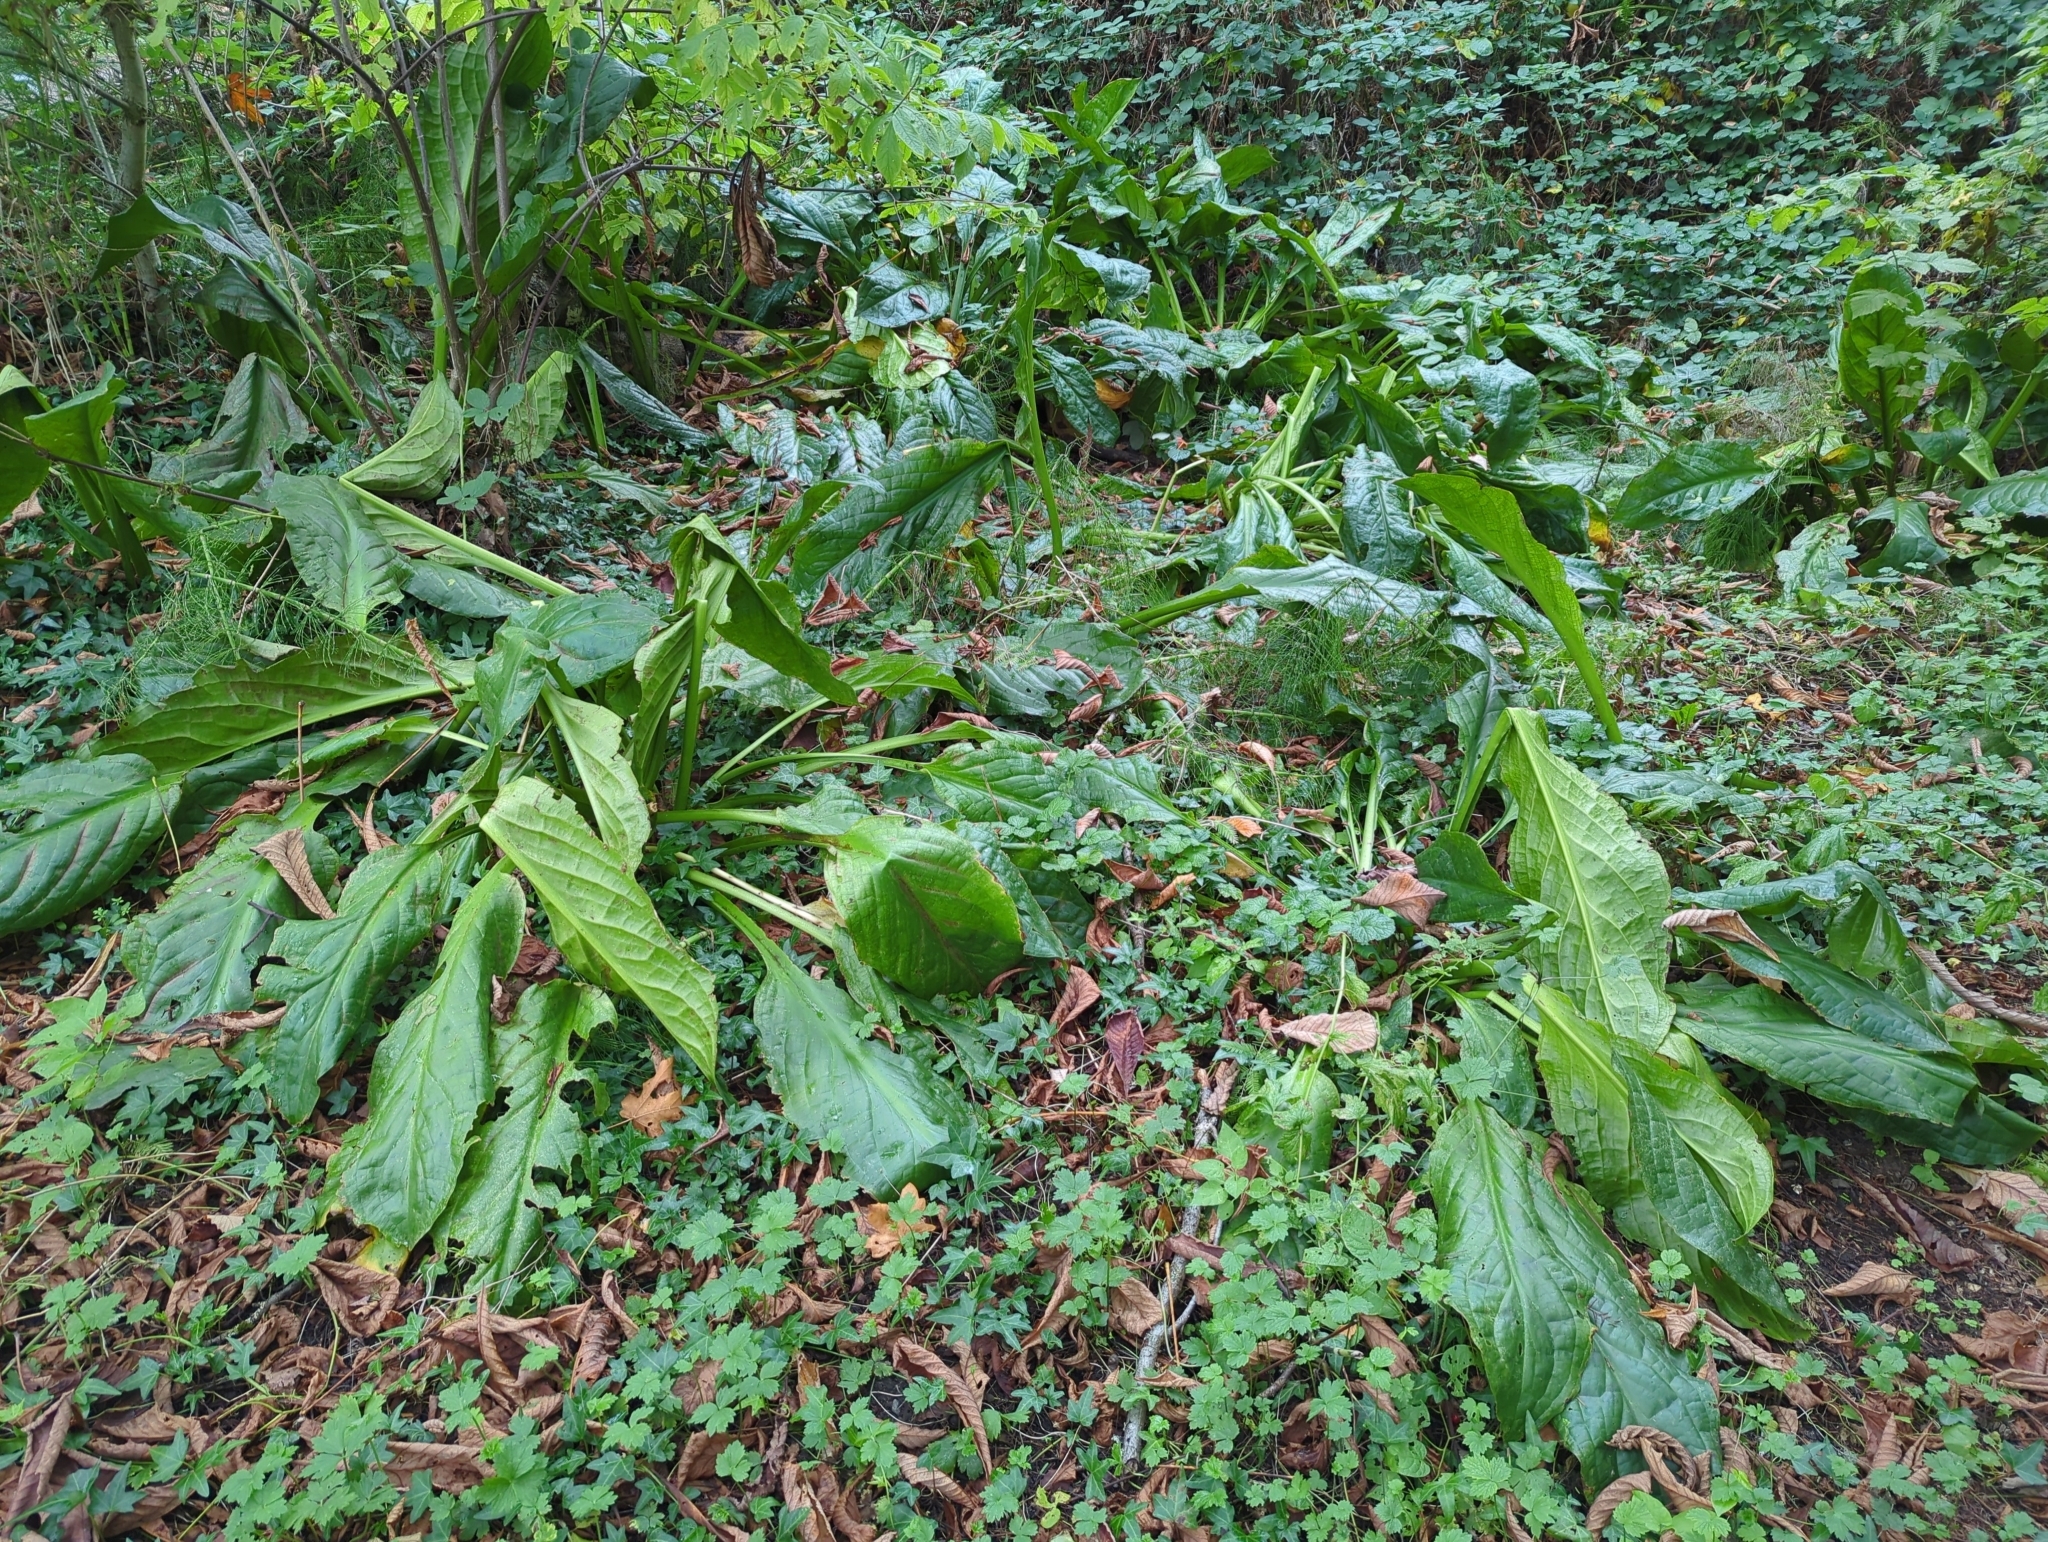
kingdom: Plantae
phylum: Tracheophyta
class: Liliopsida
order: Alismatales
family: Araceae
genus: Lysichiton
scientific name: Lysichiton americanus
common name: American skunk cabbage
